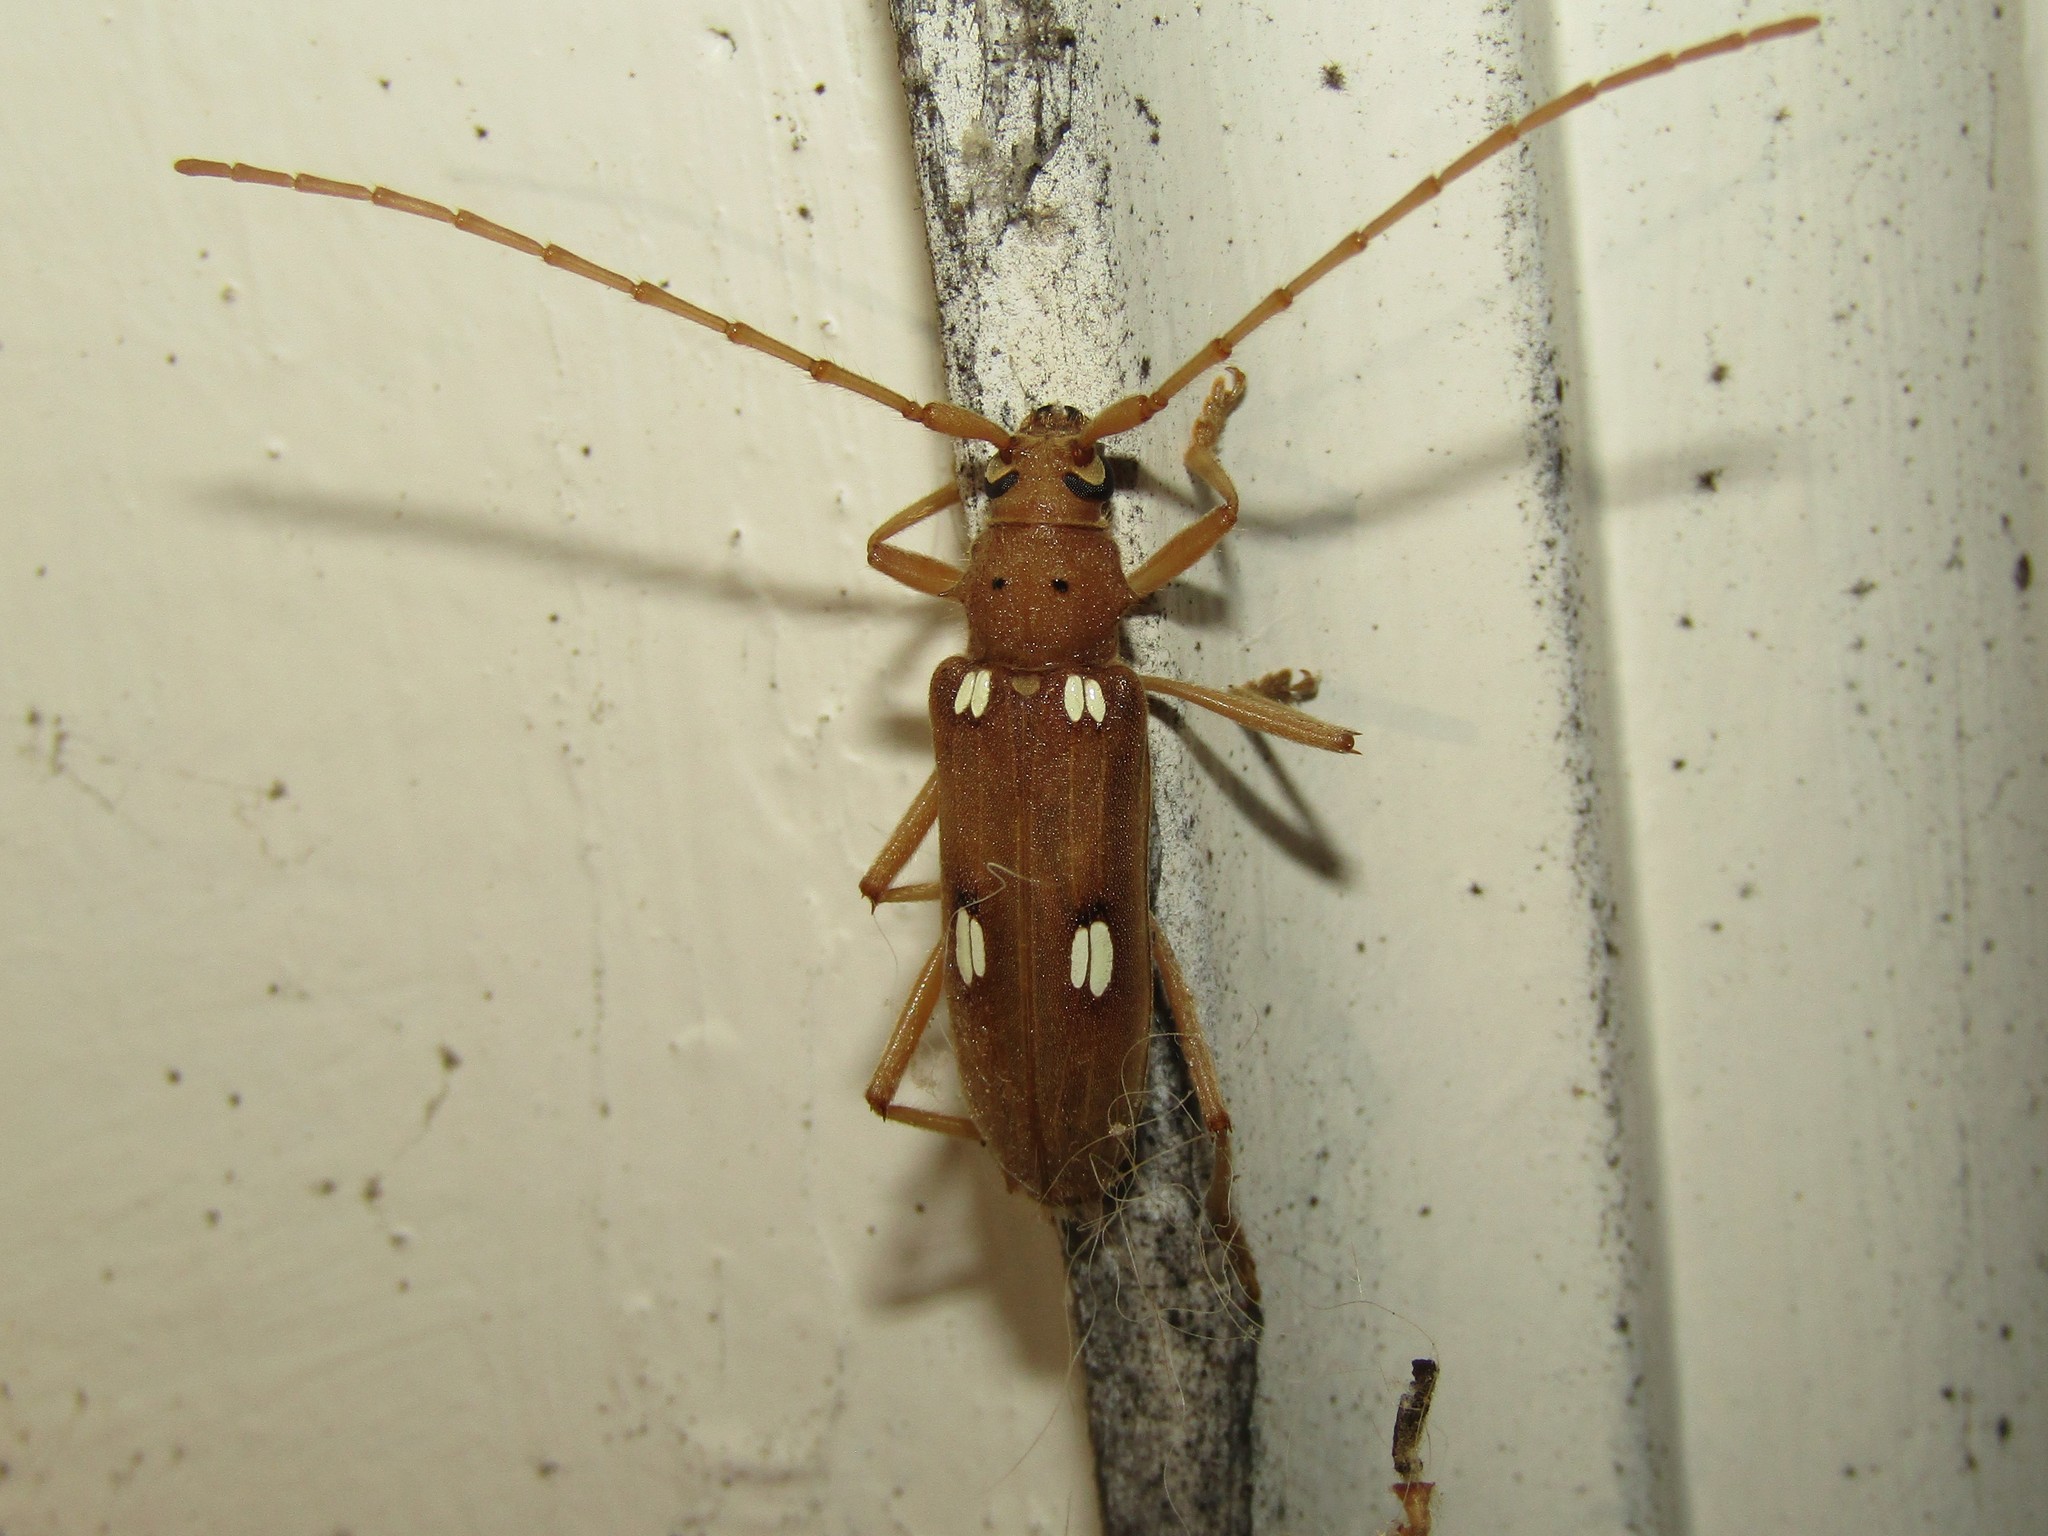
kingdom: Animalia
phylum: Arthropoda
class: Insecta
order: Coleoptera
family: Cerambycidae
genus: Eburia
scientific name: Eburia quadrigeminata
